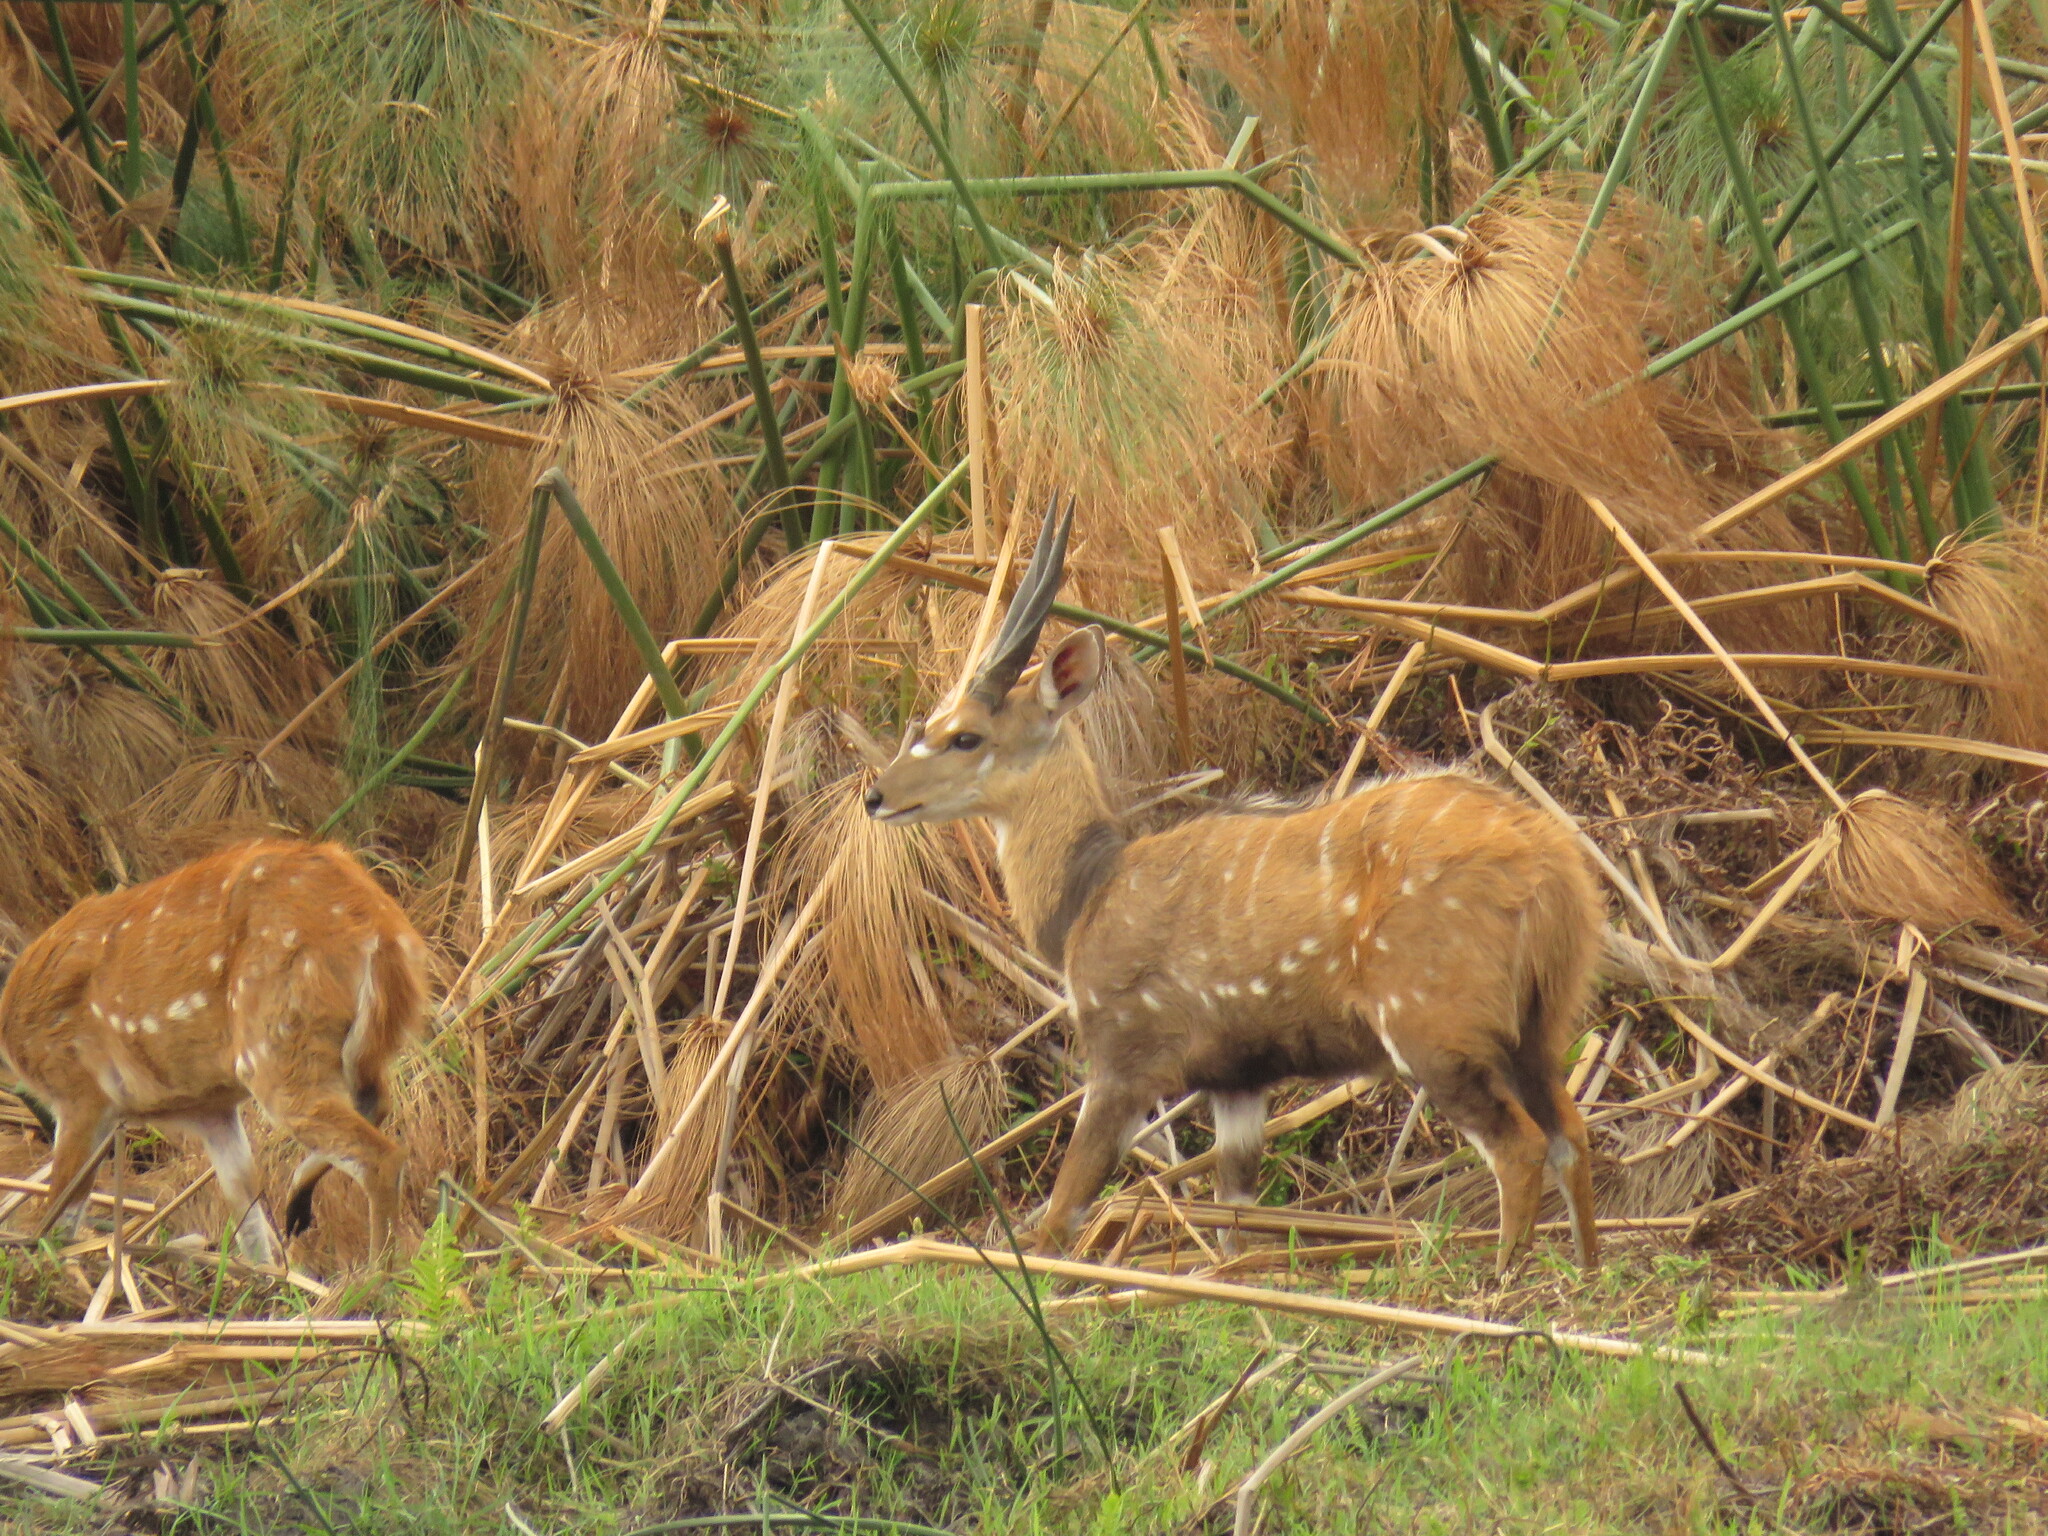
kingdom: Animalia
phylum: Chordata
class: Mammalia
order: Artiodactyla
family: Bovidae
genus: Tragelaphus
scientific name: Tragelaphus scriptus
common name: Bushbuck
